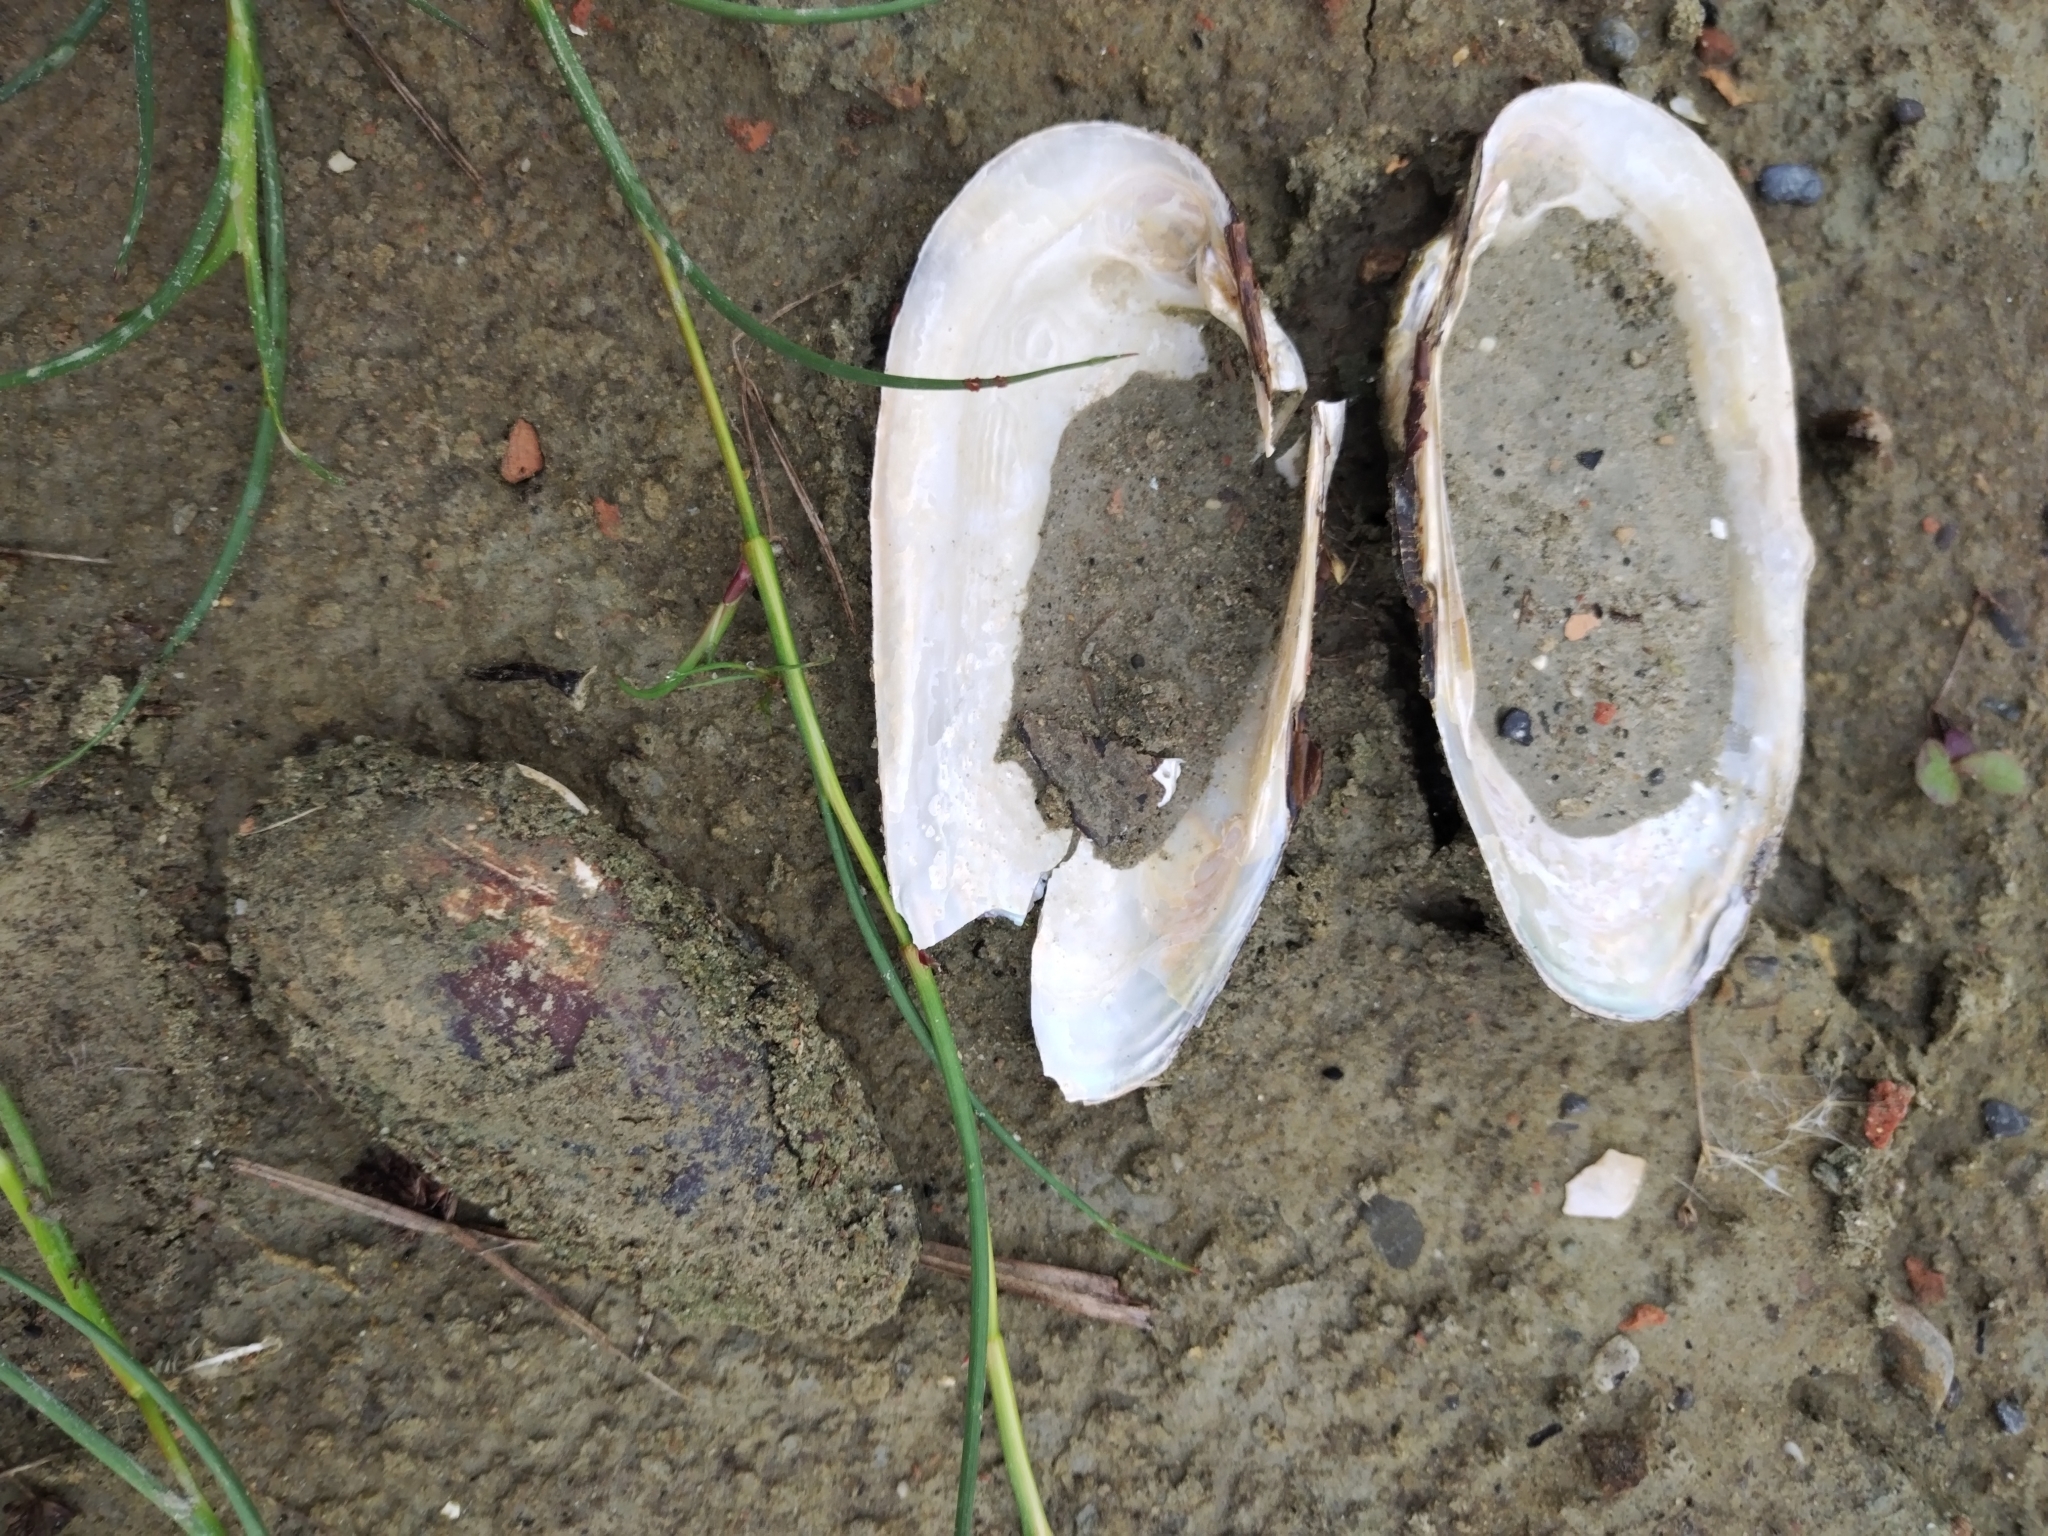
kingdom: Animalia
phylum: Mollusca
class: Bivalvia
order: Unionida
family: Unionidae
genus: Unio
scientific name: Unio elongatulus
